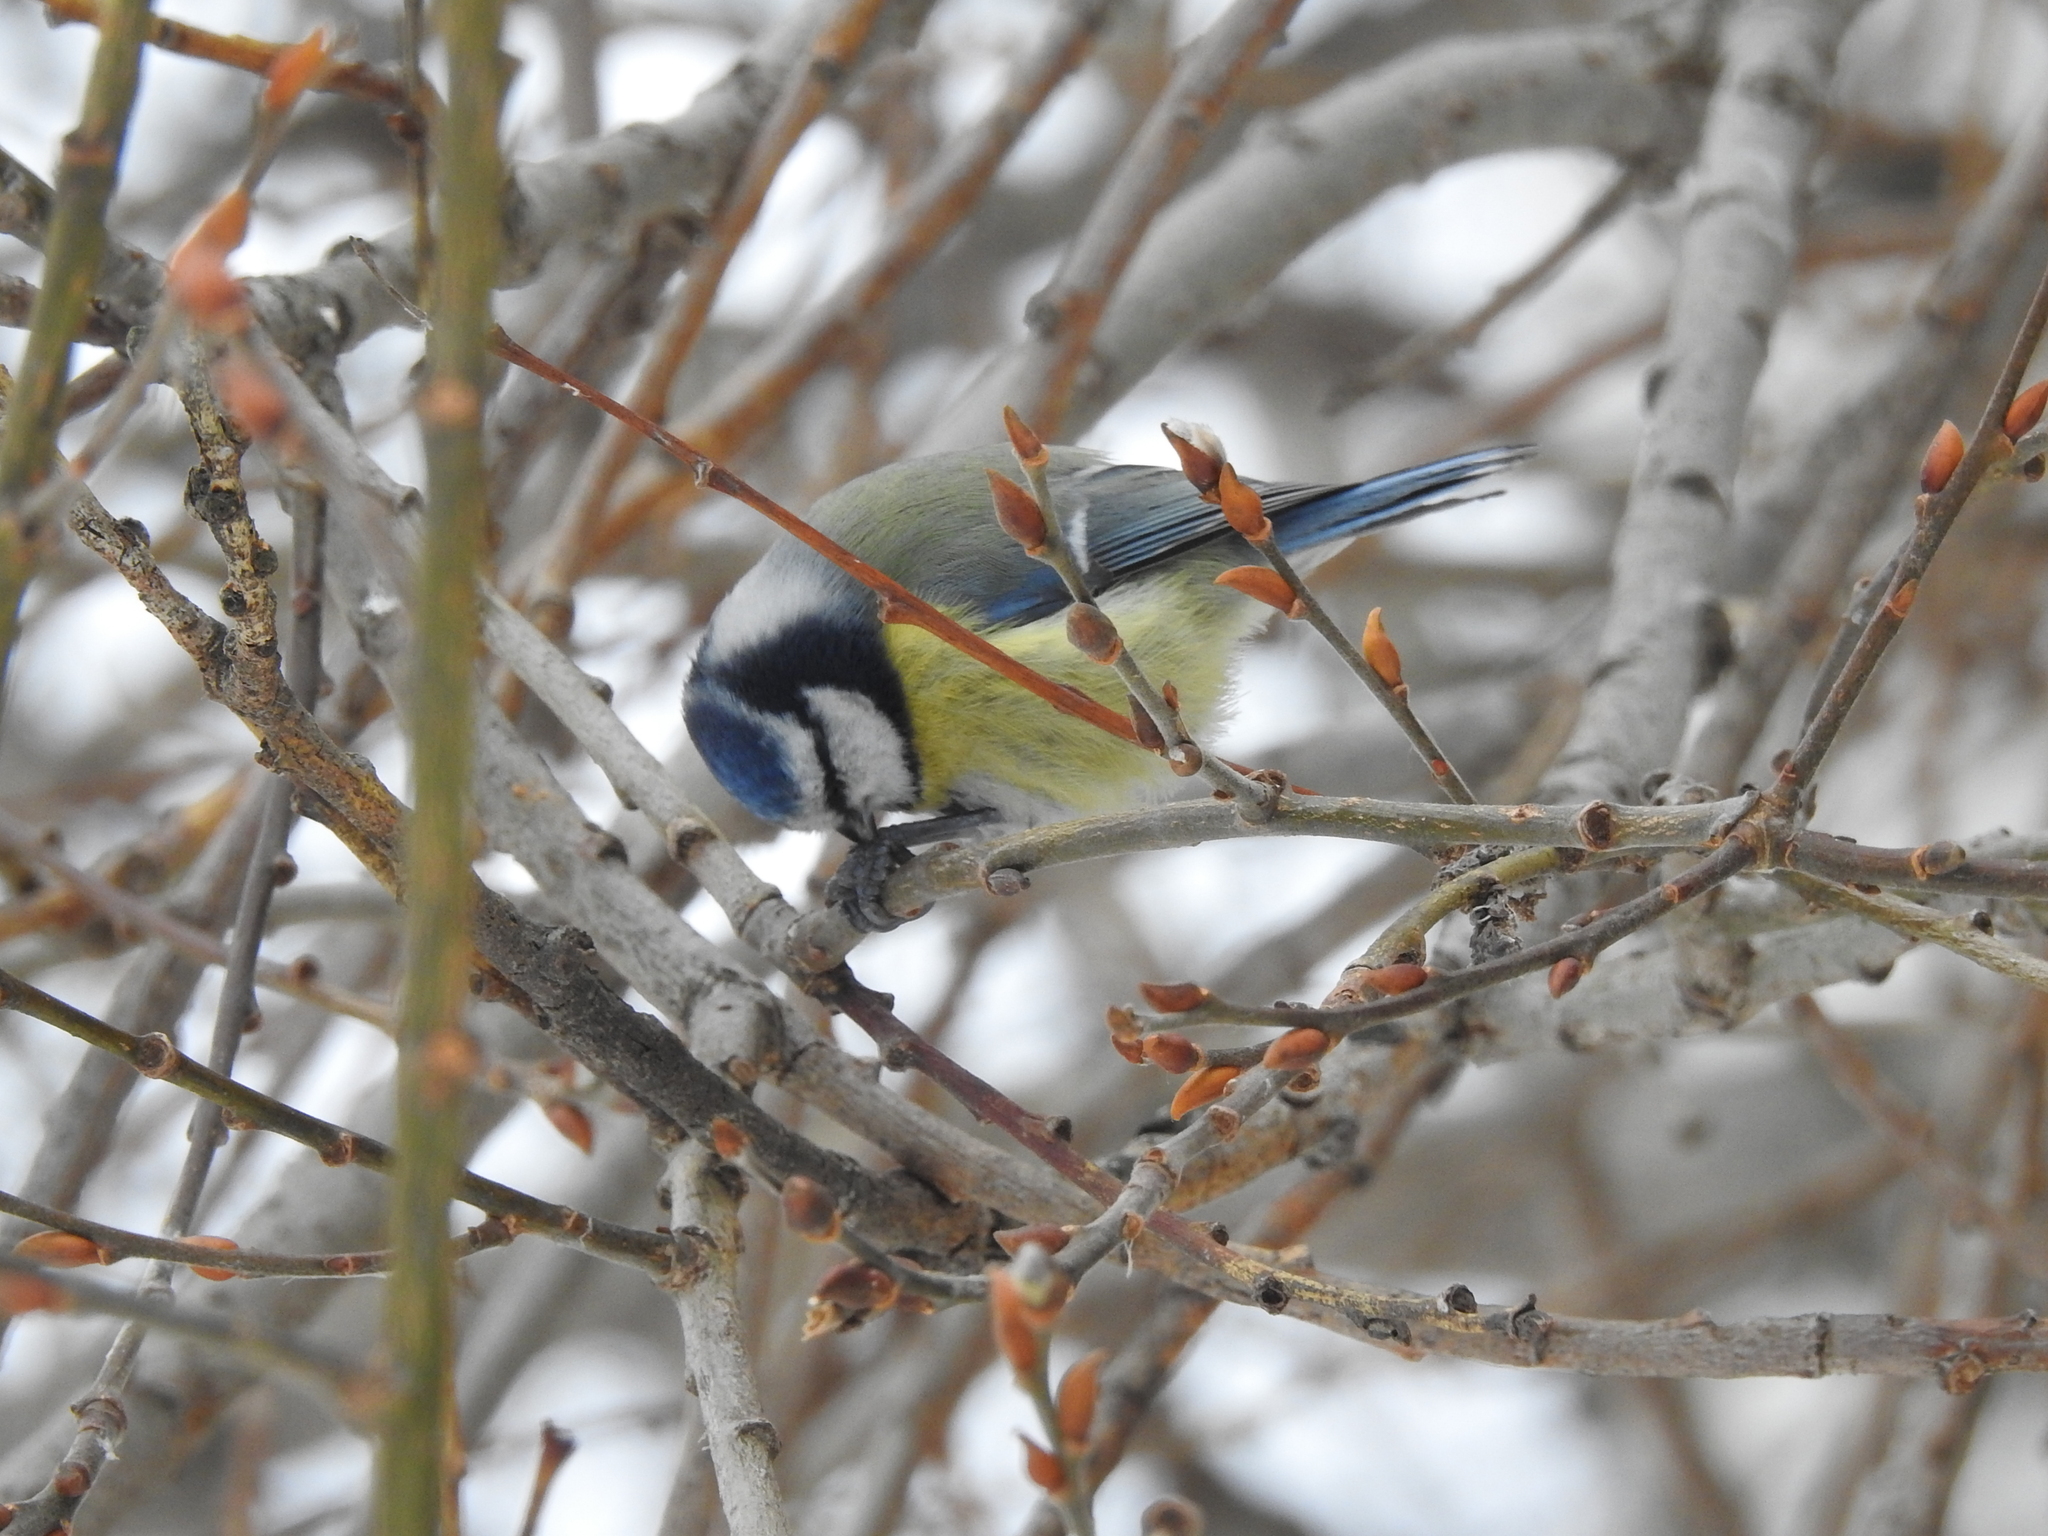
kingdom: Animalia
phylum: Chordata
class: Aves
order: Passeriformes
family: Paridae
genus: Cyanistes
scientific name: Cyanistes caeruleus
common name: Eurasian blue tit
